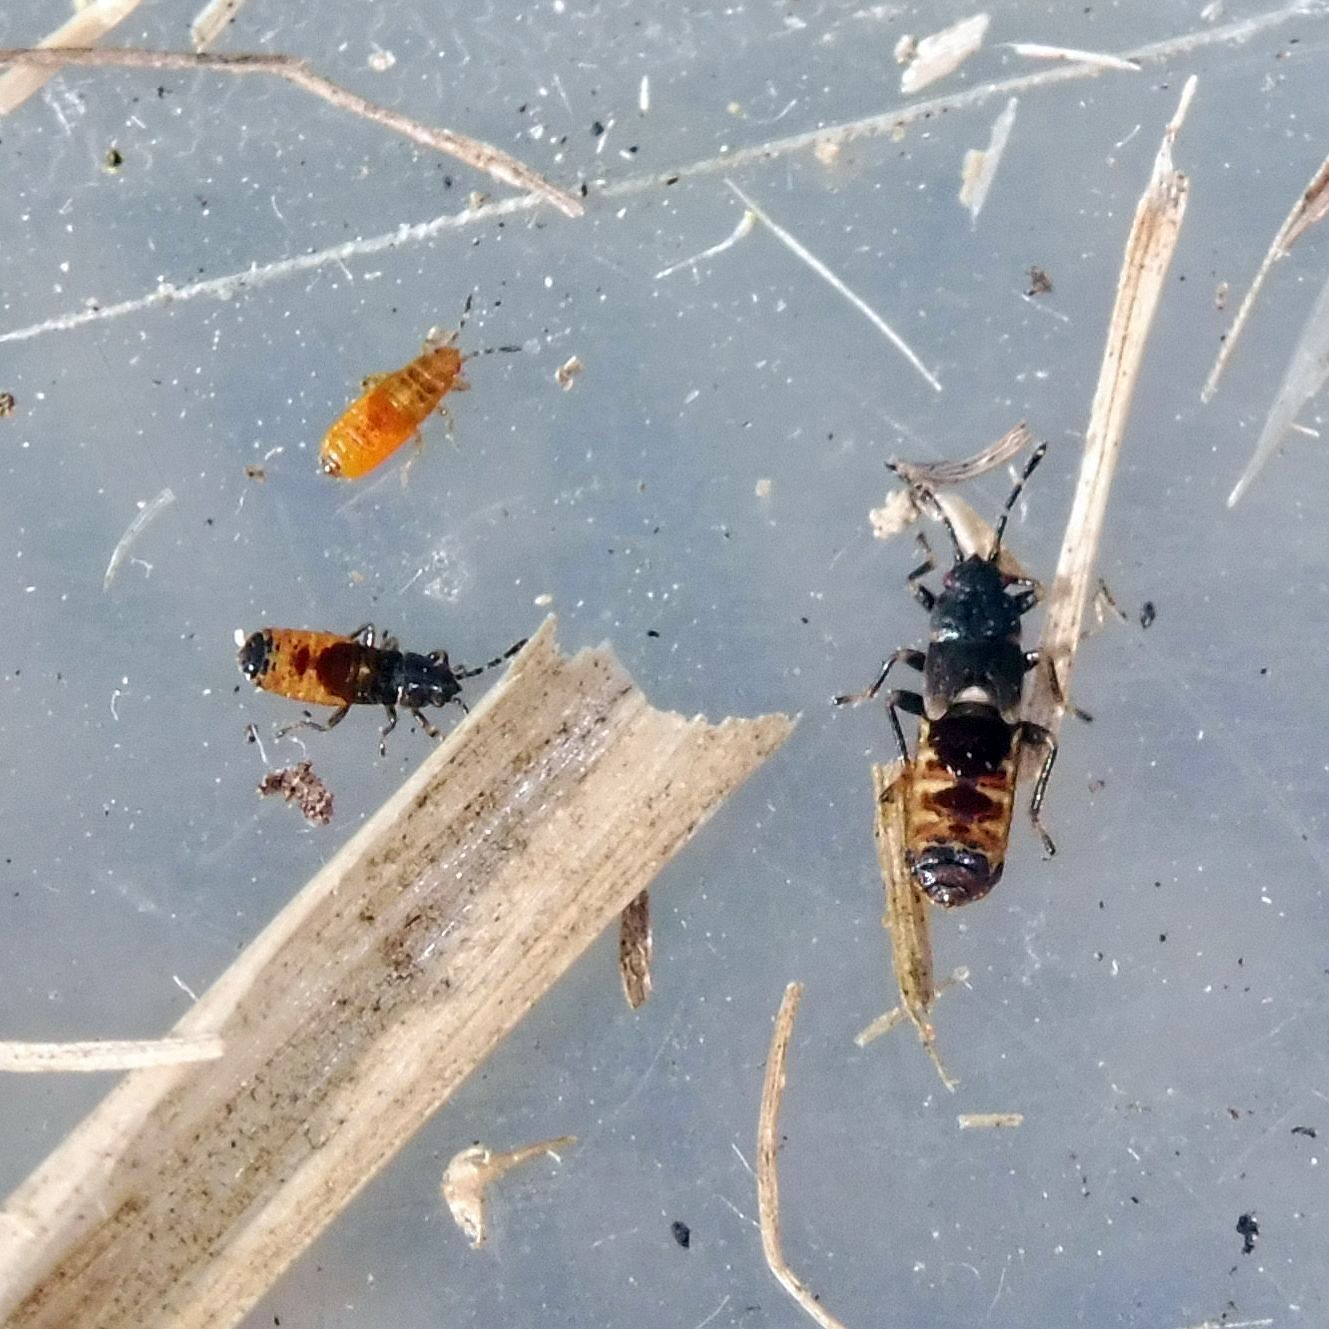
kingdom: Animalia
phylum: Arthropoda
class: Insecta
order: Hemiptera
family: Blissidae
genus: Ischnodemus
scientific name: Ischnodemus sabuleti
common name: European cinchbug
